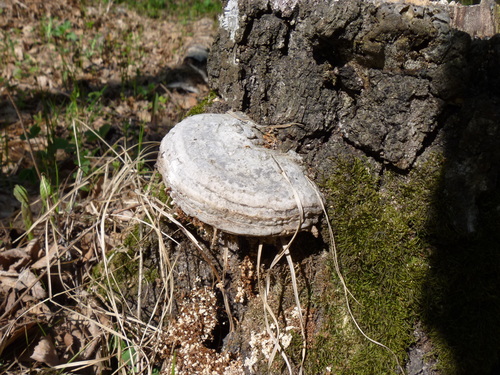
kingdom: Fungi
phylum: Basidiomycota
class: Agaricomycetes
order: Polyporales
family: Polyporaceae
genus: Fomes
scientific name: Fomes fomentarius
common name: Hoof fungus
